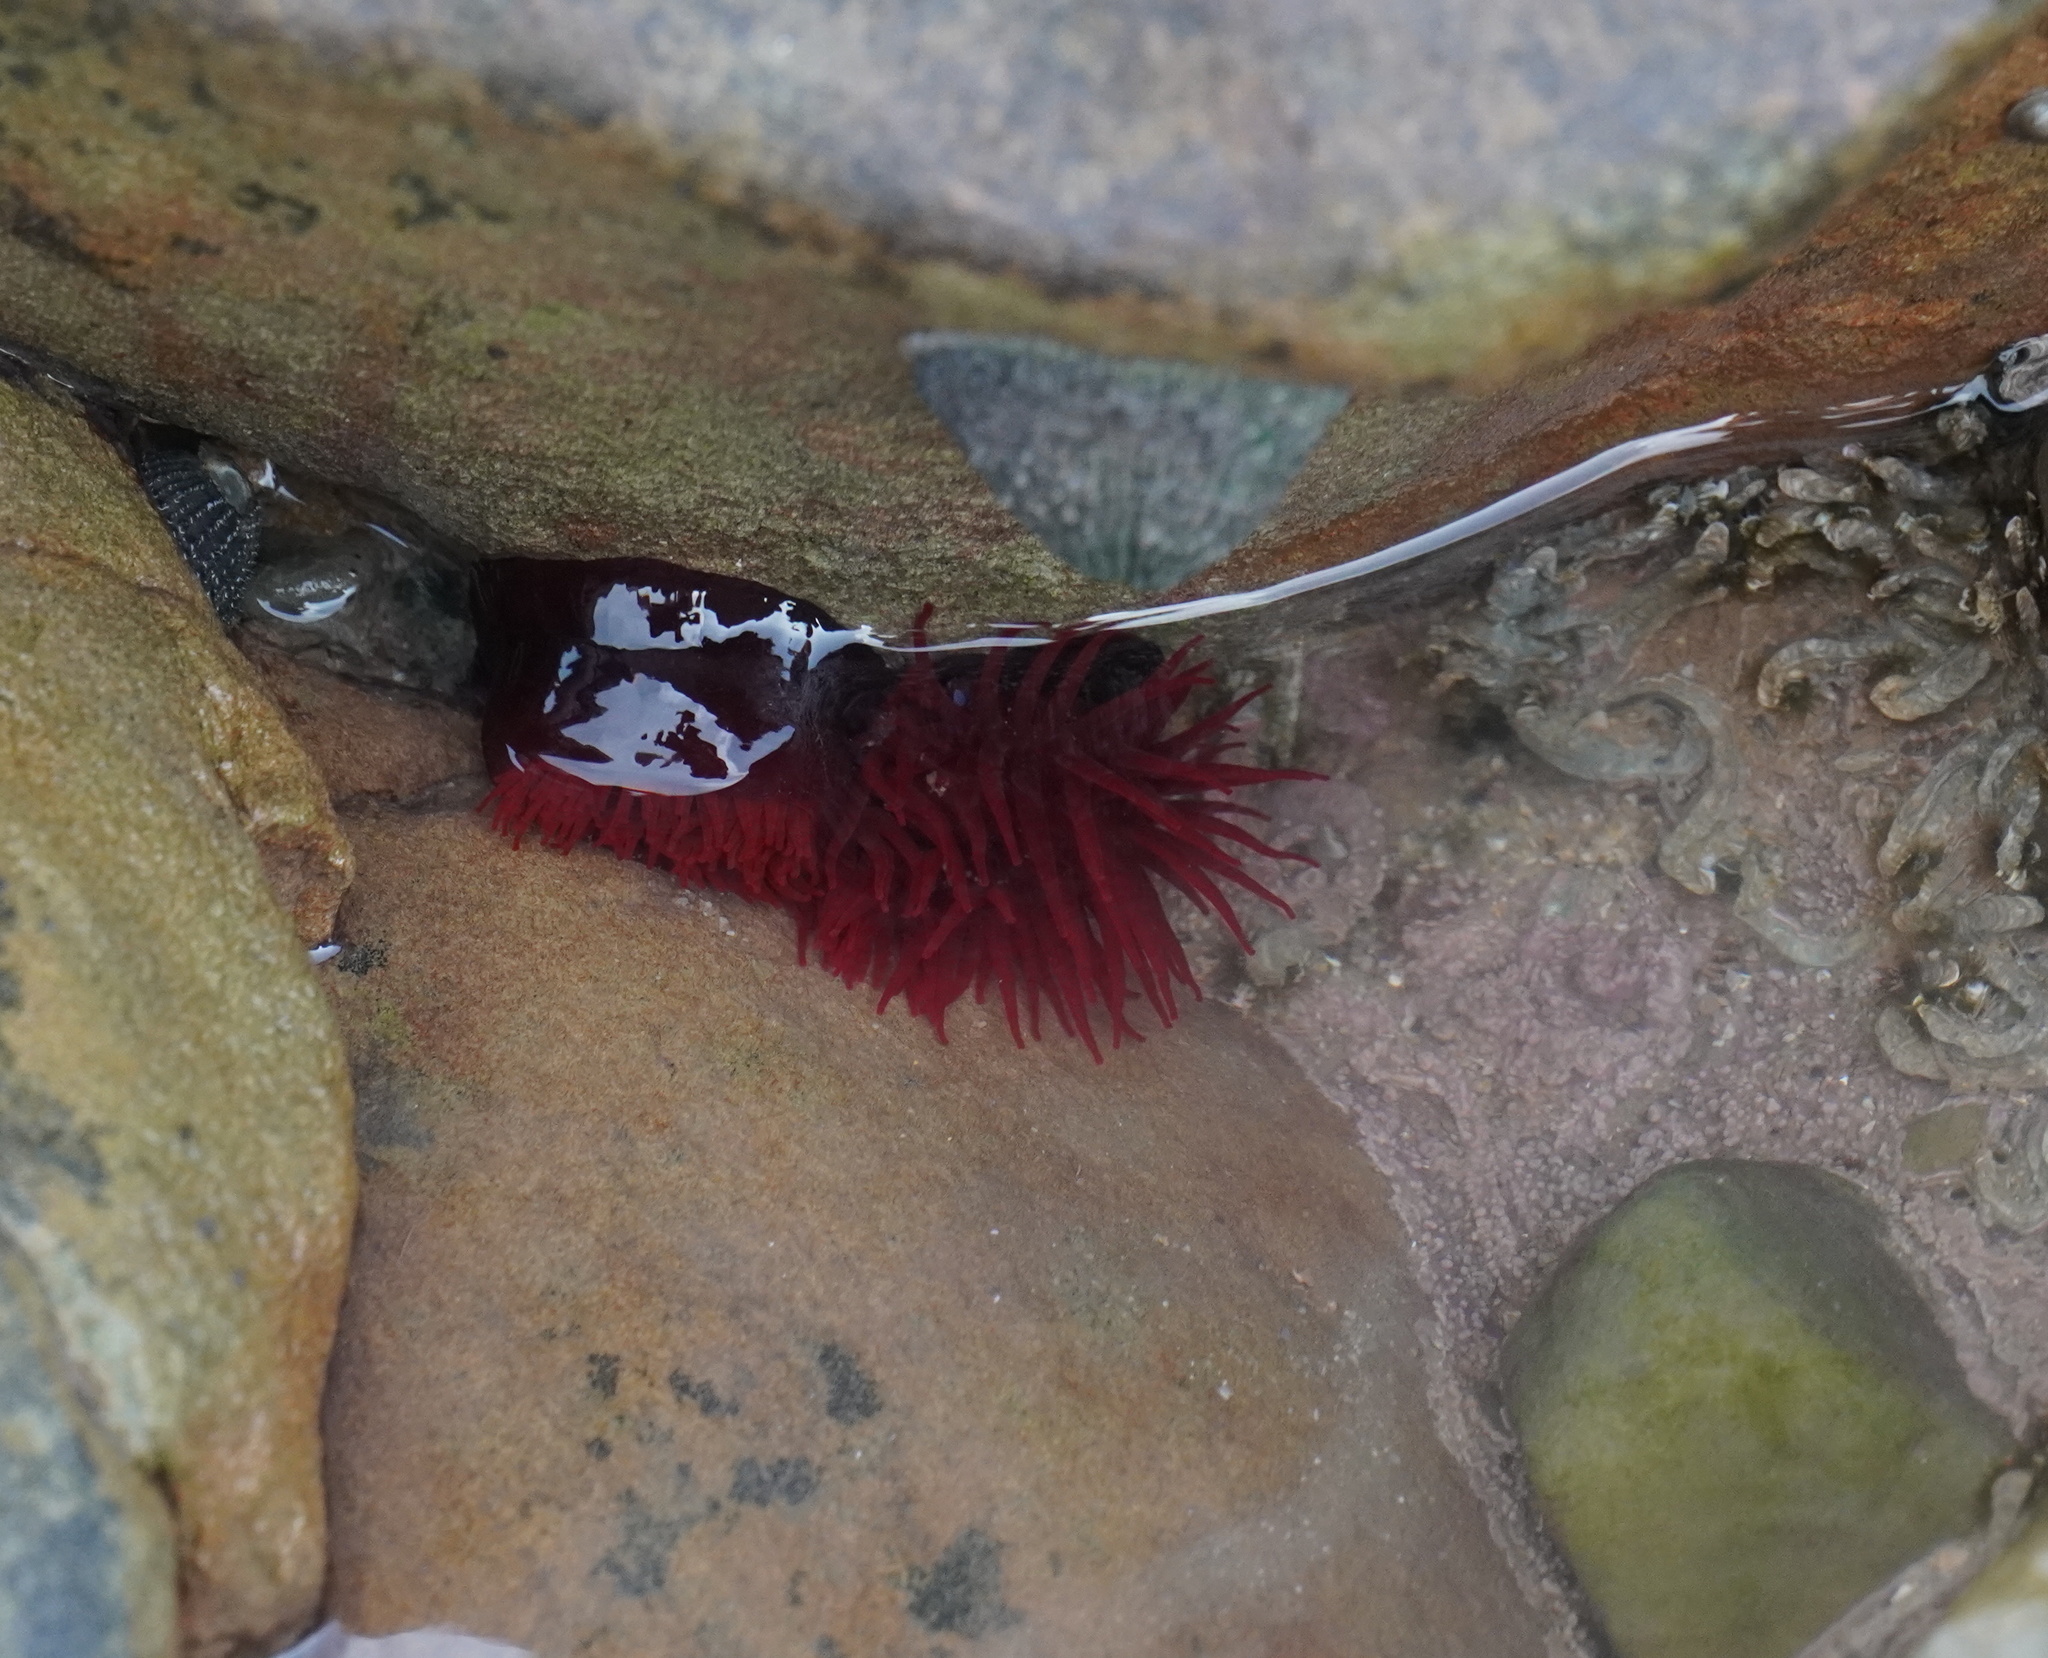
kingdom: Animalia
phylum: Cnidaria
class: Anthozoa
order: Actiniaria
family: Actiniidae
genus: Actinia
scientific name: Actinia ebhayiensis
